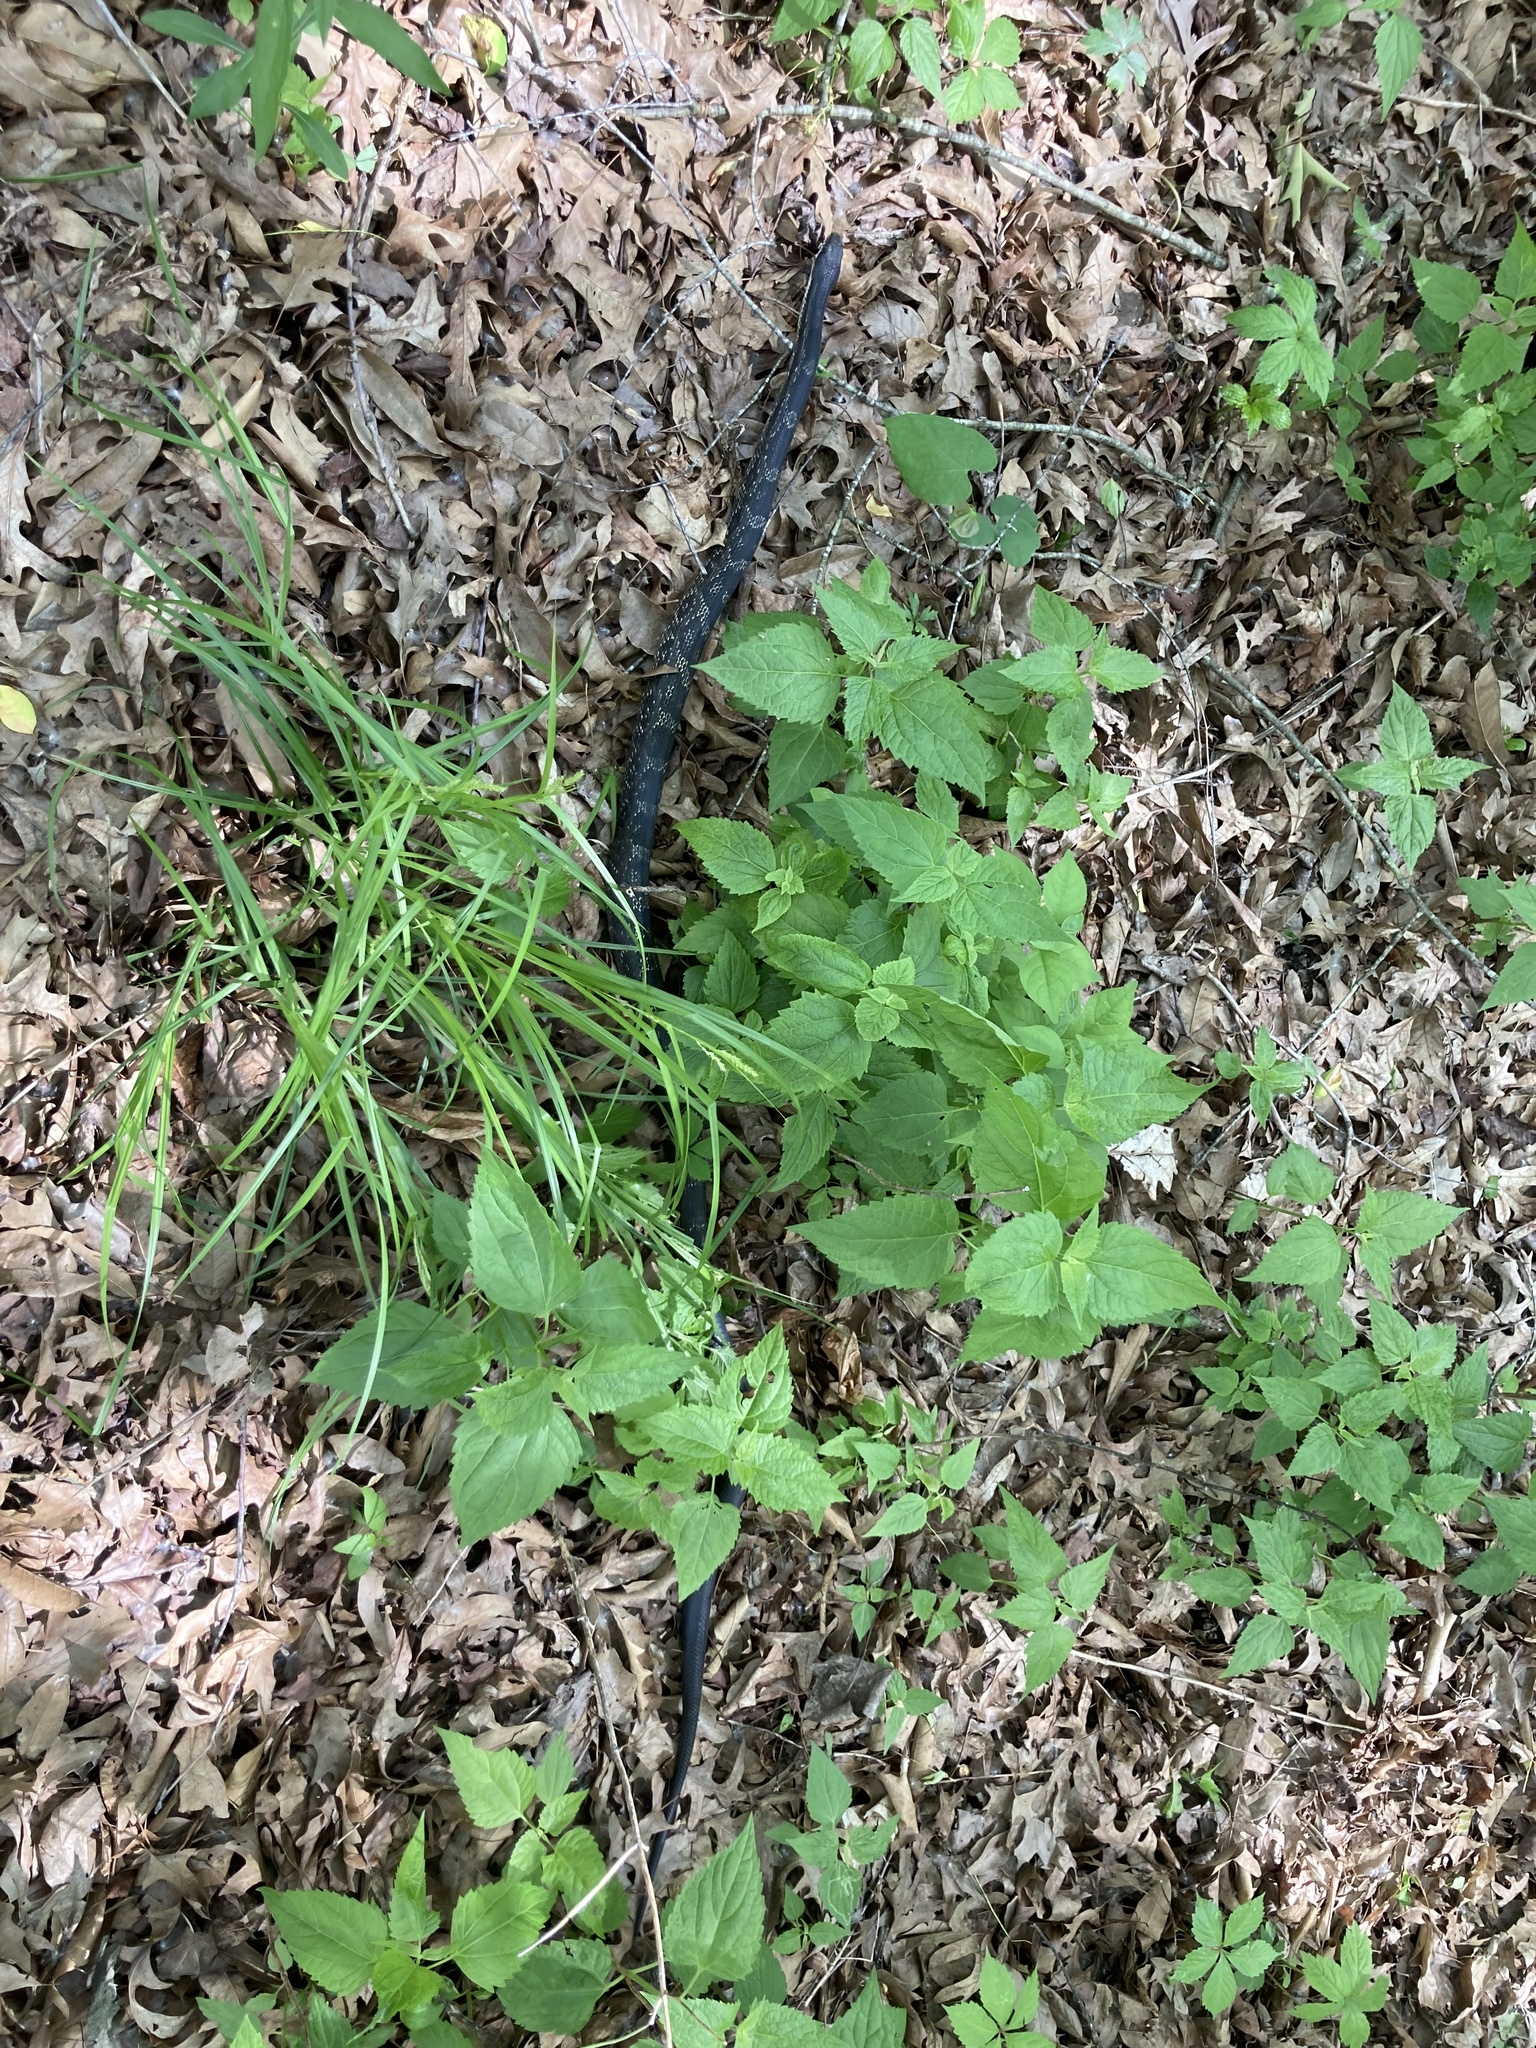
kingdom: Animalia
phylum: Chordata
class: Squamata
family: Colubridae
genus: Pantherophis
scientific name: Pantherophis spiloides
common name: Gray rat snake
